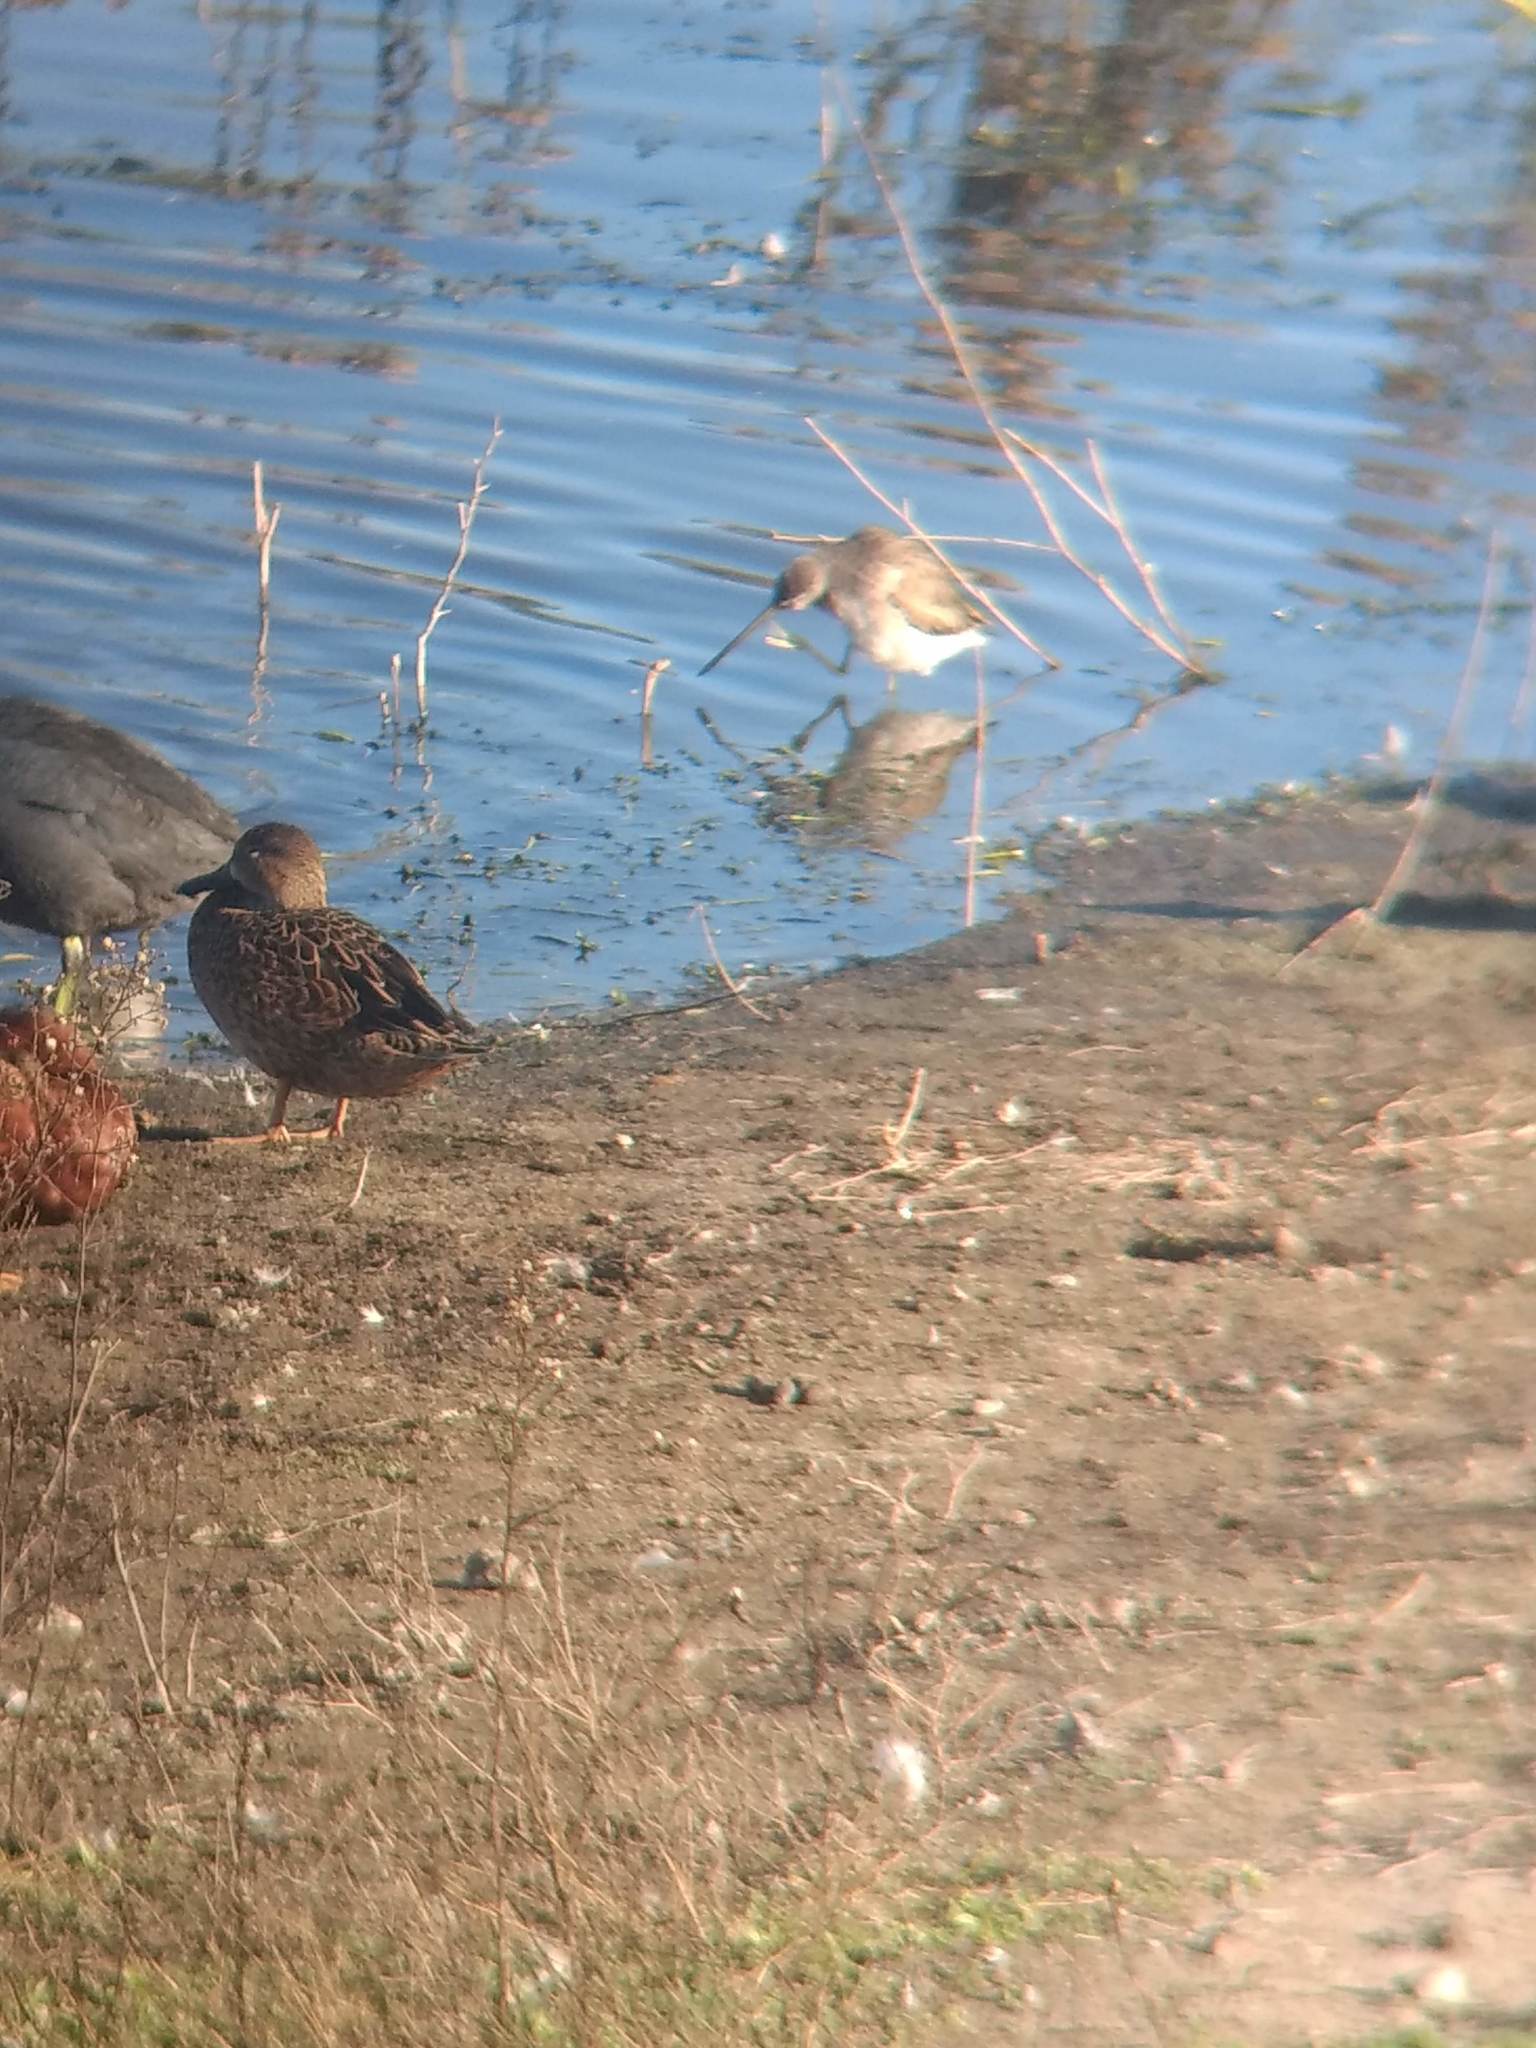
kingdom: Animalia
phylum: Chordata
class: Aves
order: Charadriiformes
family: Scolopacidae
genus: Limnodromus
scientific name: Limnodromus
